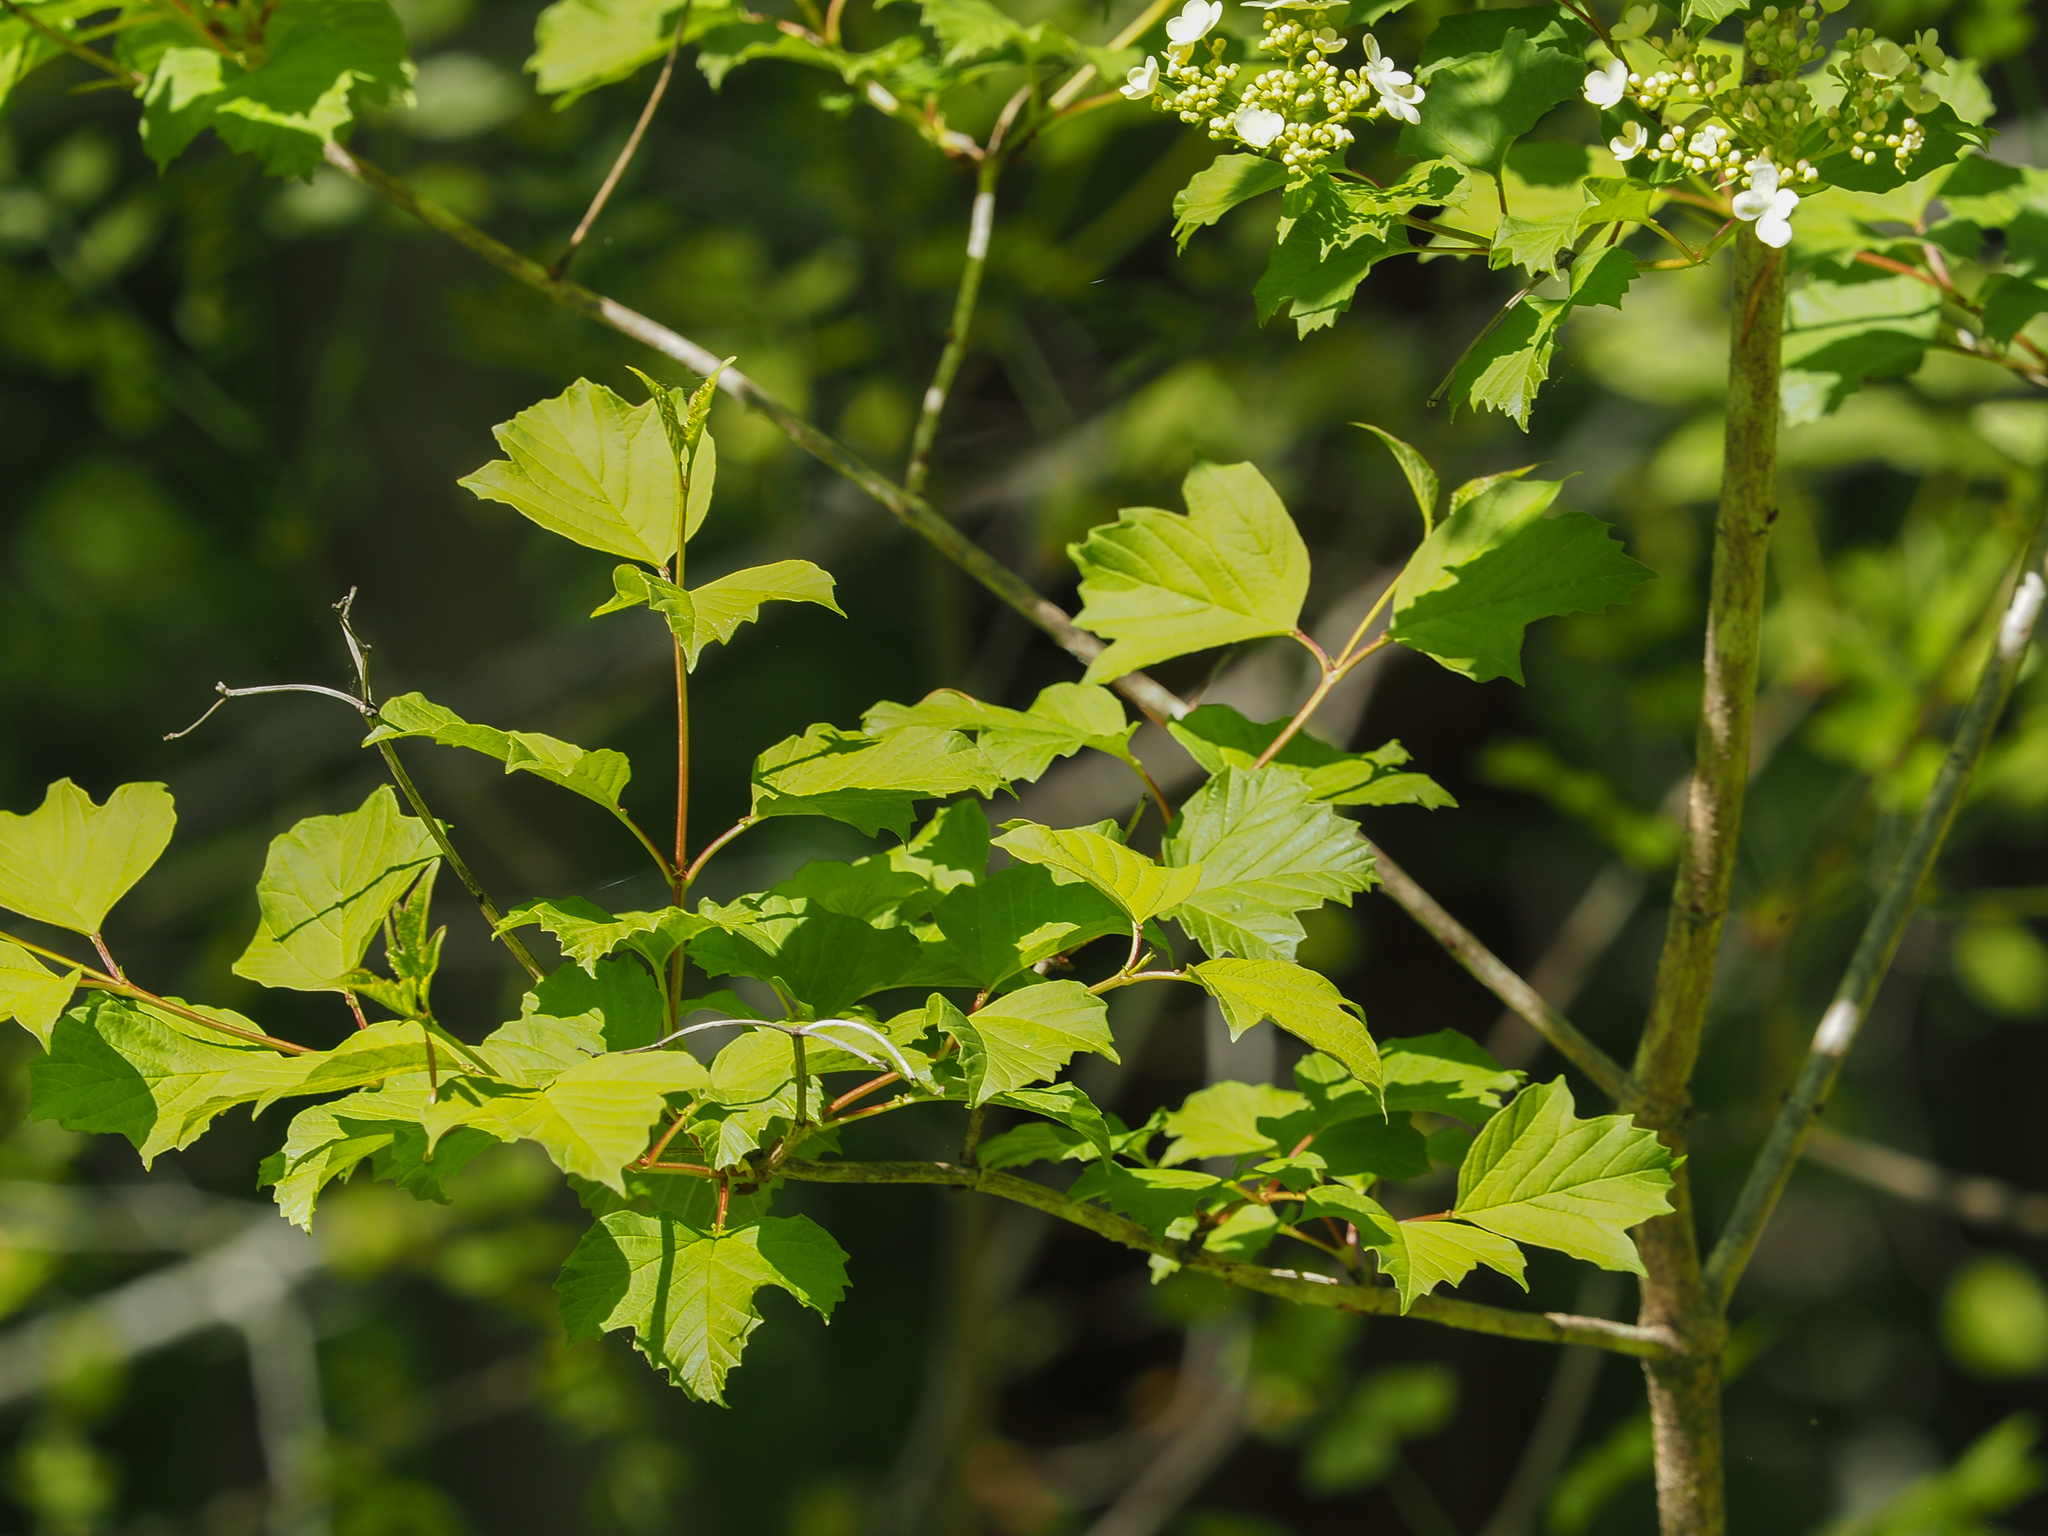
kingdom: Plantae
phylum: Tracheophyta
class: Magnoliopsida
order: Dipsacales
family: Viburnaceae
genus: Viburnum
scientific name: Viburnum opulus
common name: Guelder-rose
